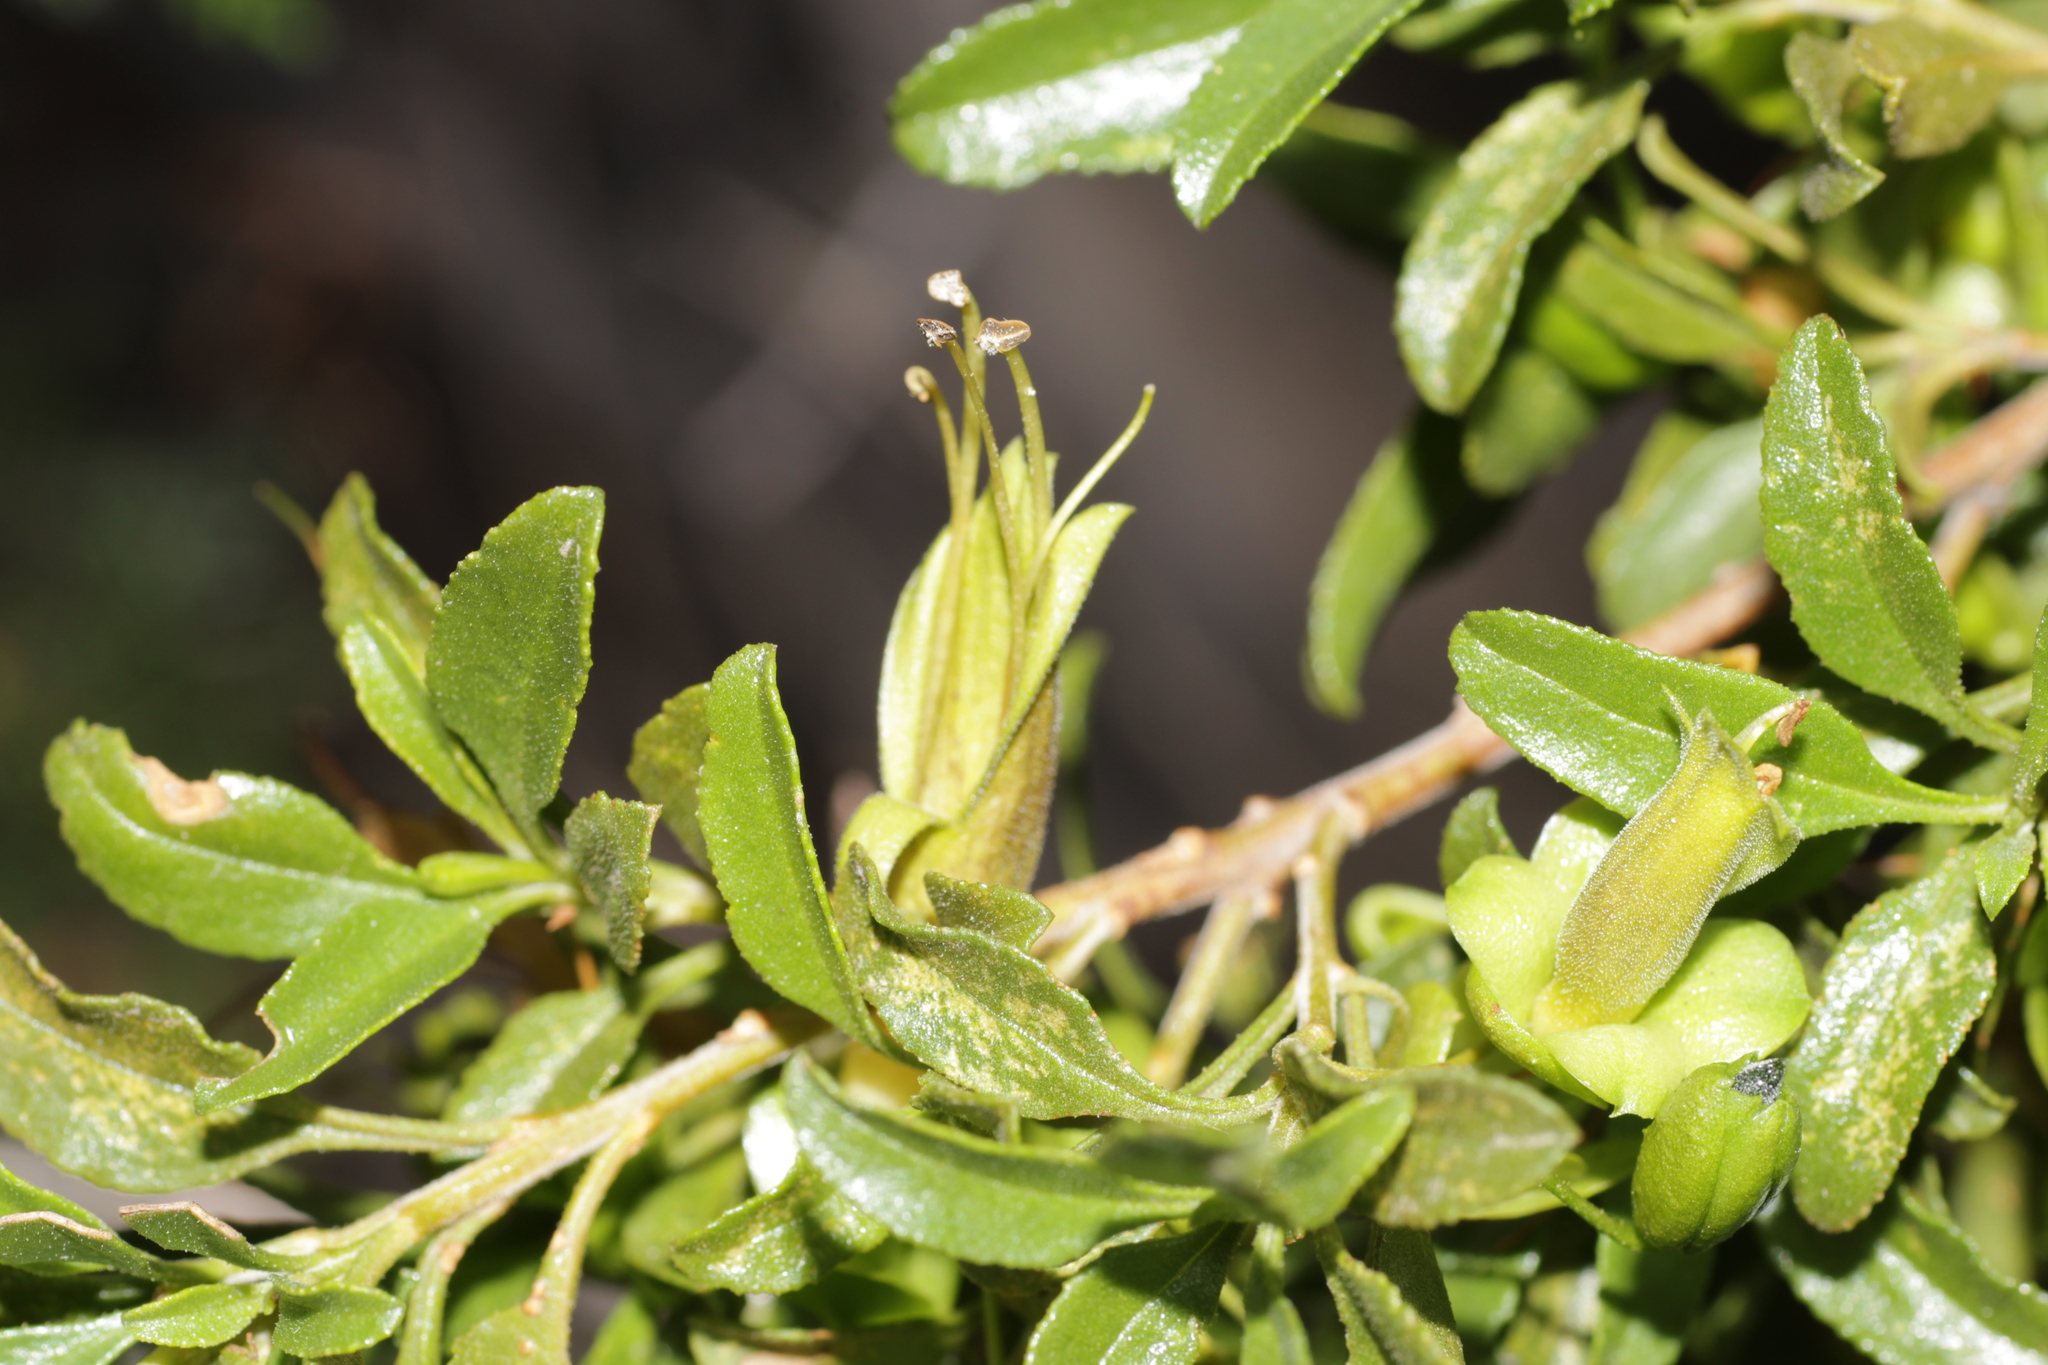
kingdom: Plantae
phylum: Tracheophyta
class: Magnoliopsida
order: Lamiales
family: Scrophulariaceae
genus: Eremophila
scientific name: Eremophila serrulata
